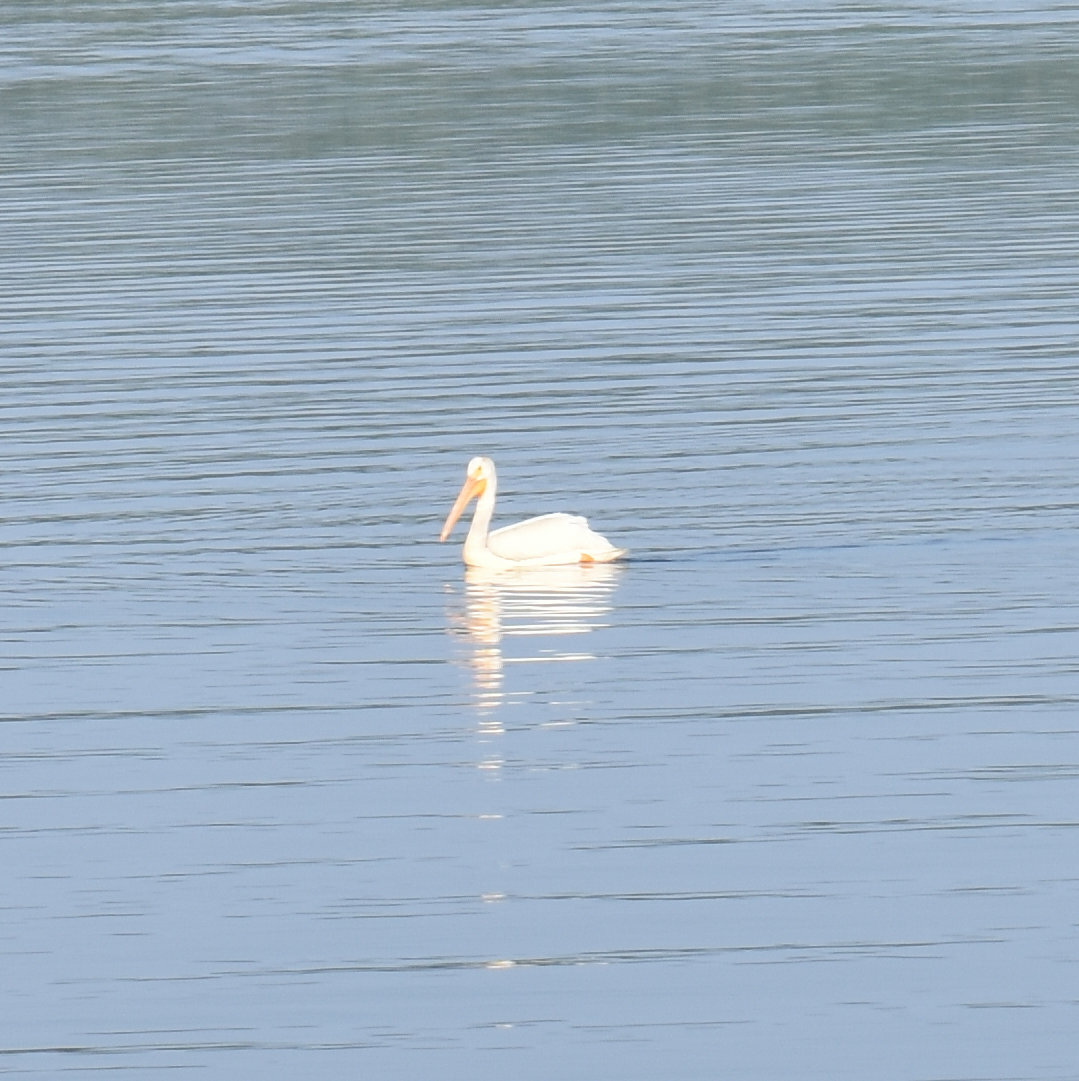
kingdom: Animalia
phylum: Chordata
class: Aves
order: Pelecaniformes
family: Pelecanidae
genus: Pelecanus
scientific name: Pelecanus erythrorhynchos
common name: American white pelican
